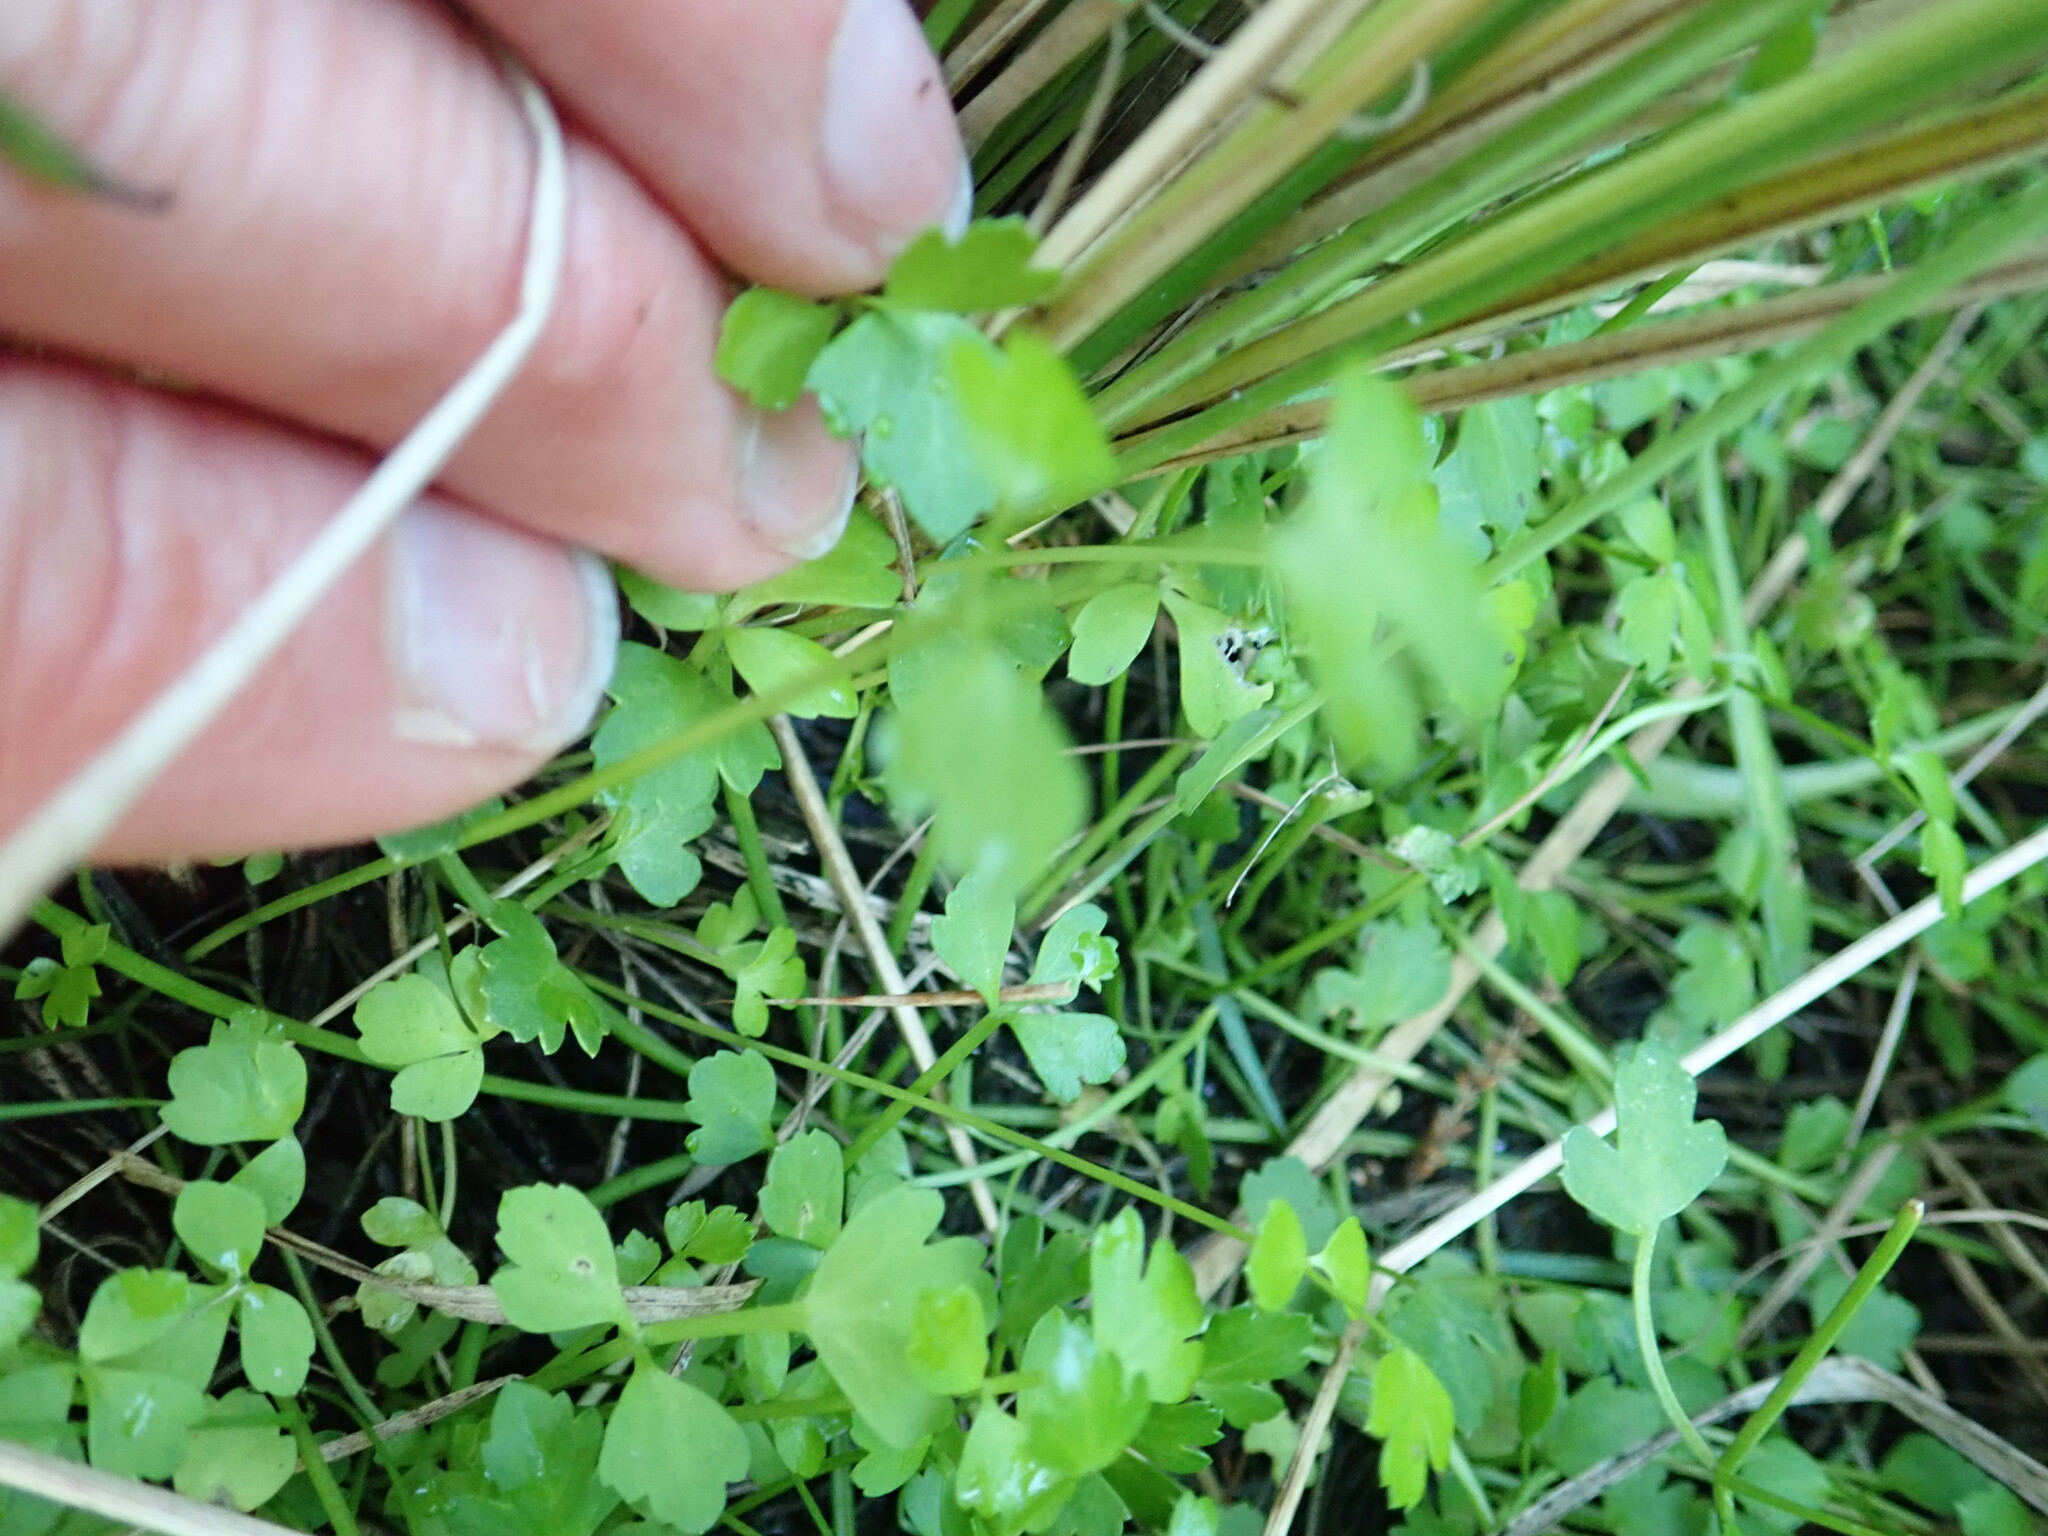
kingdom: Plantae
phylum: Tracheophyta
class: Magnoliopsida
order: Apiales
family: Apiaceae
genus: Apium
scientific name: Apium prostratum
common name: Prostrate marshwort
